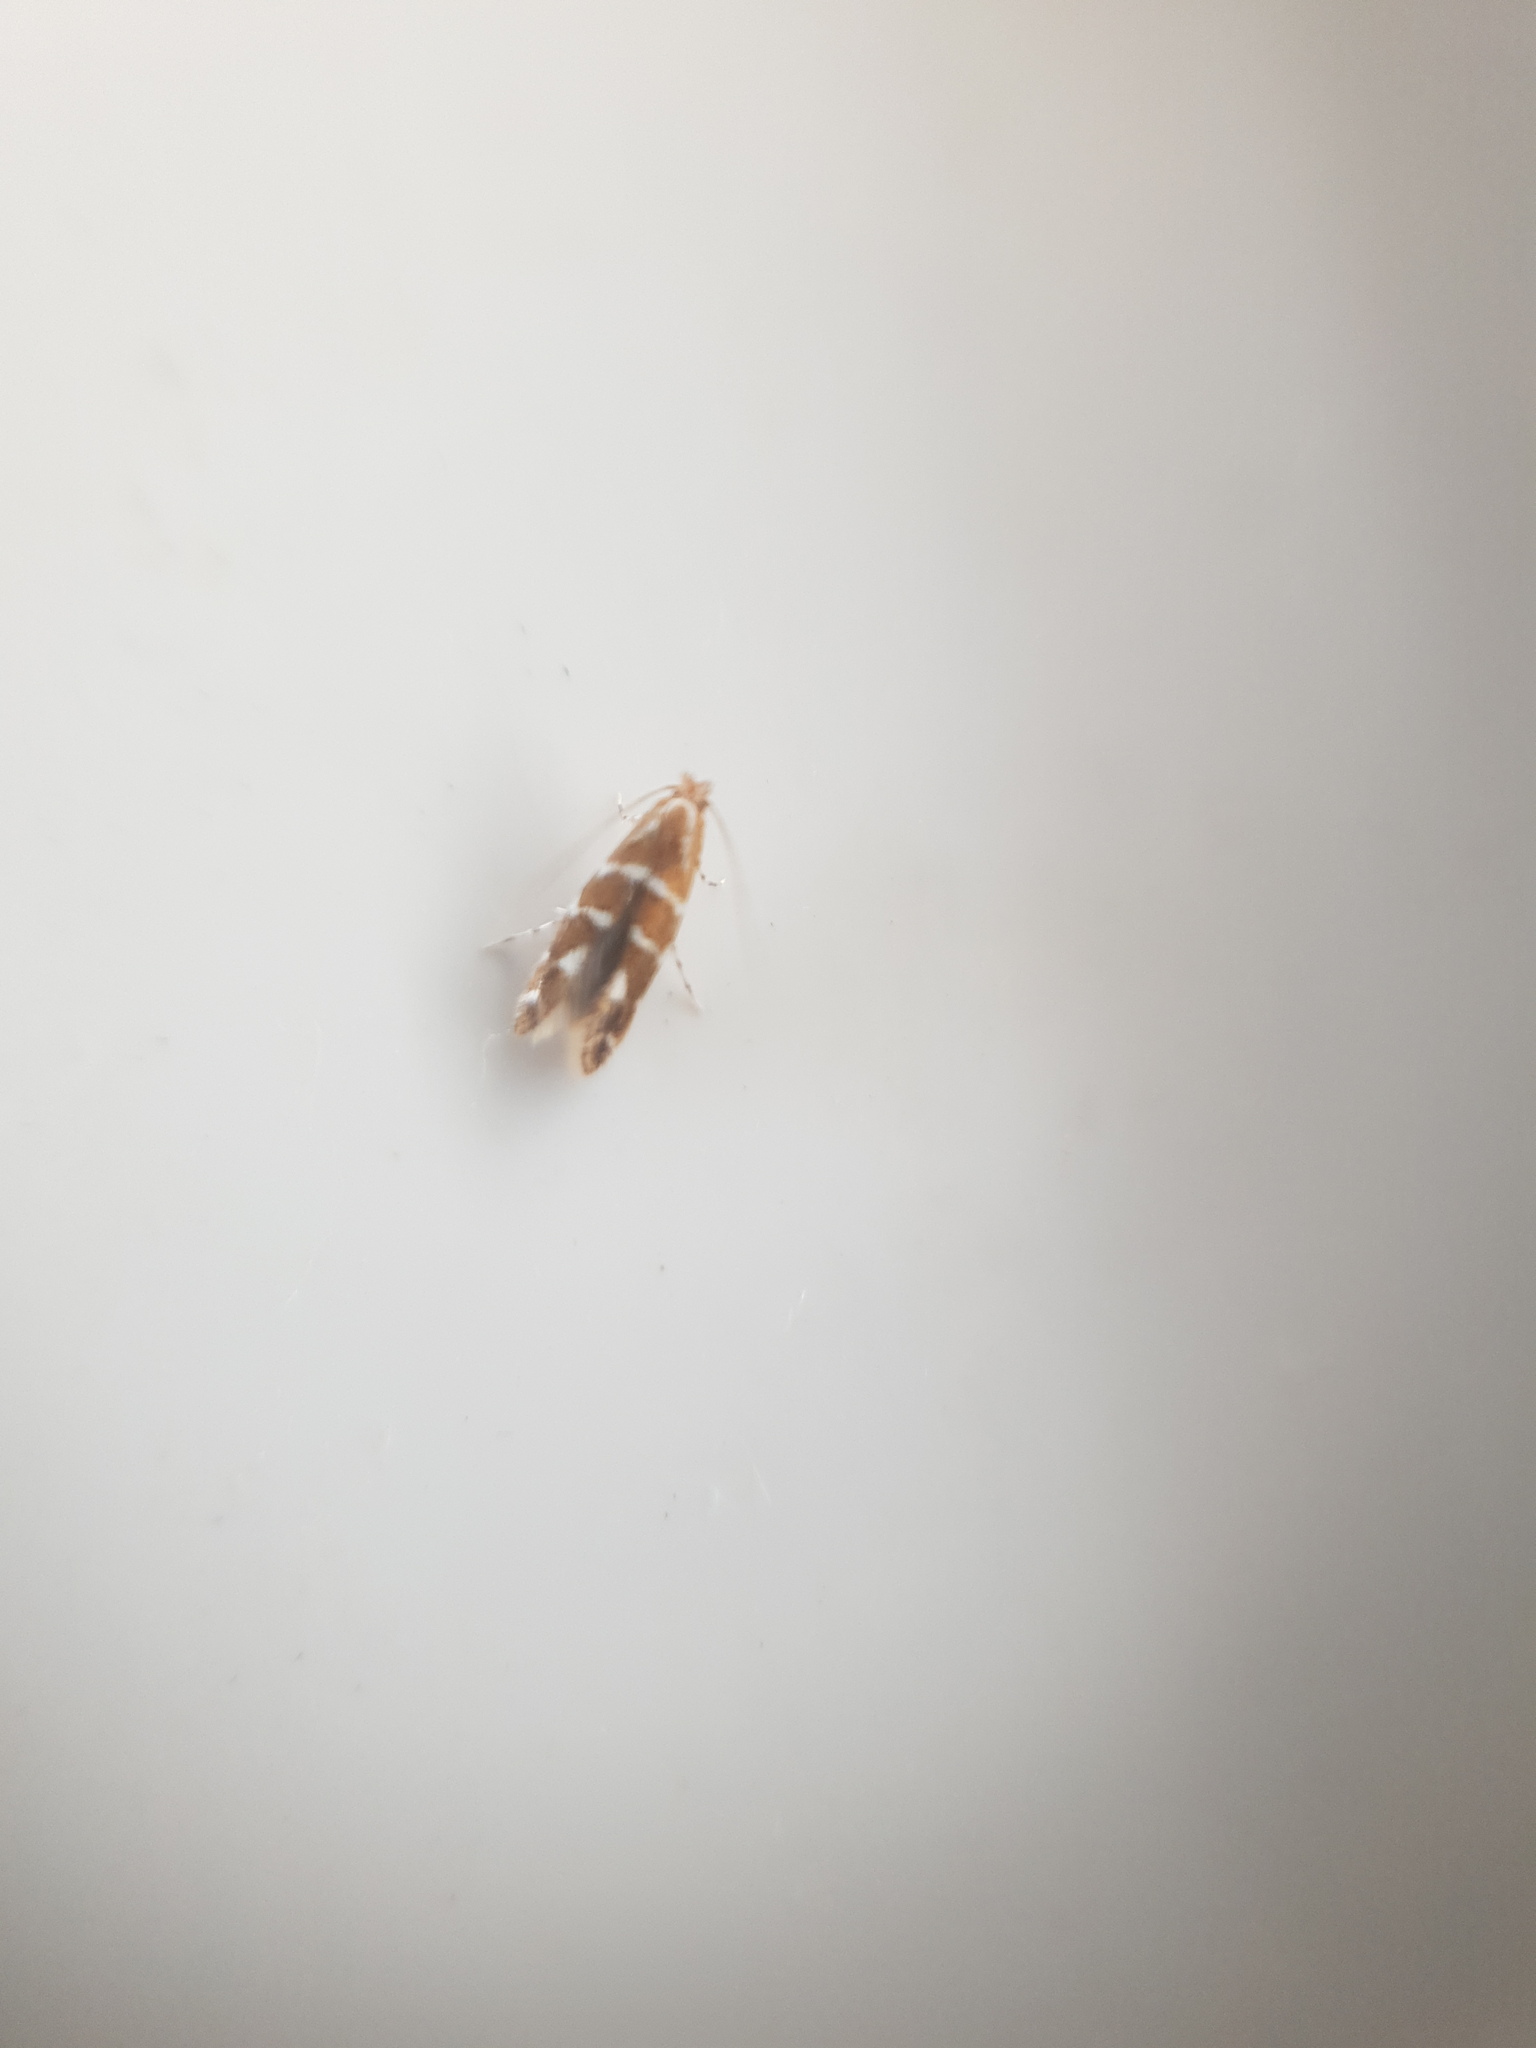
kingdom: Animalia
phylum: Arthropoda
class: Insecta
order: Lepidoptera
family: Gracillariidae
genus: Cameraria
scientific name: Cameraria ohridella
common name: Horse-chestnut leaf-miner
